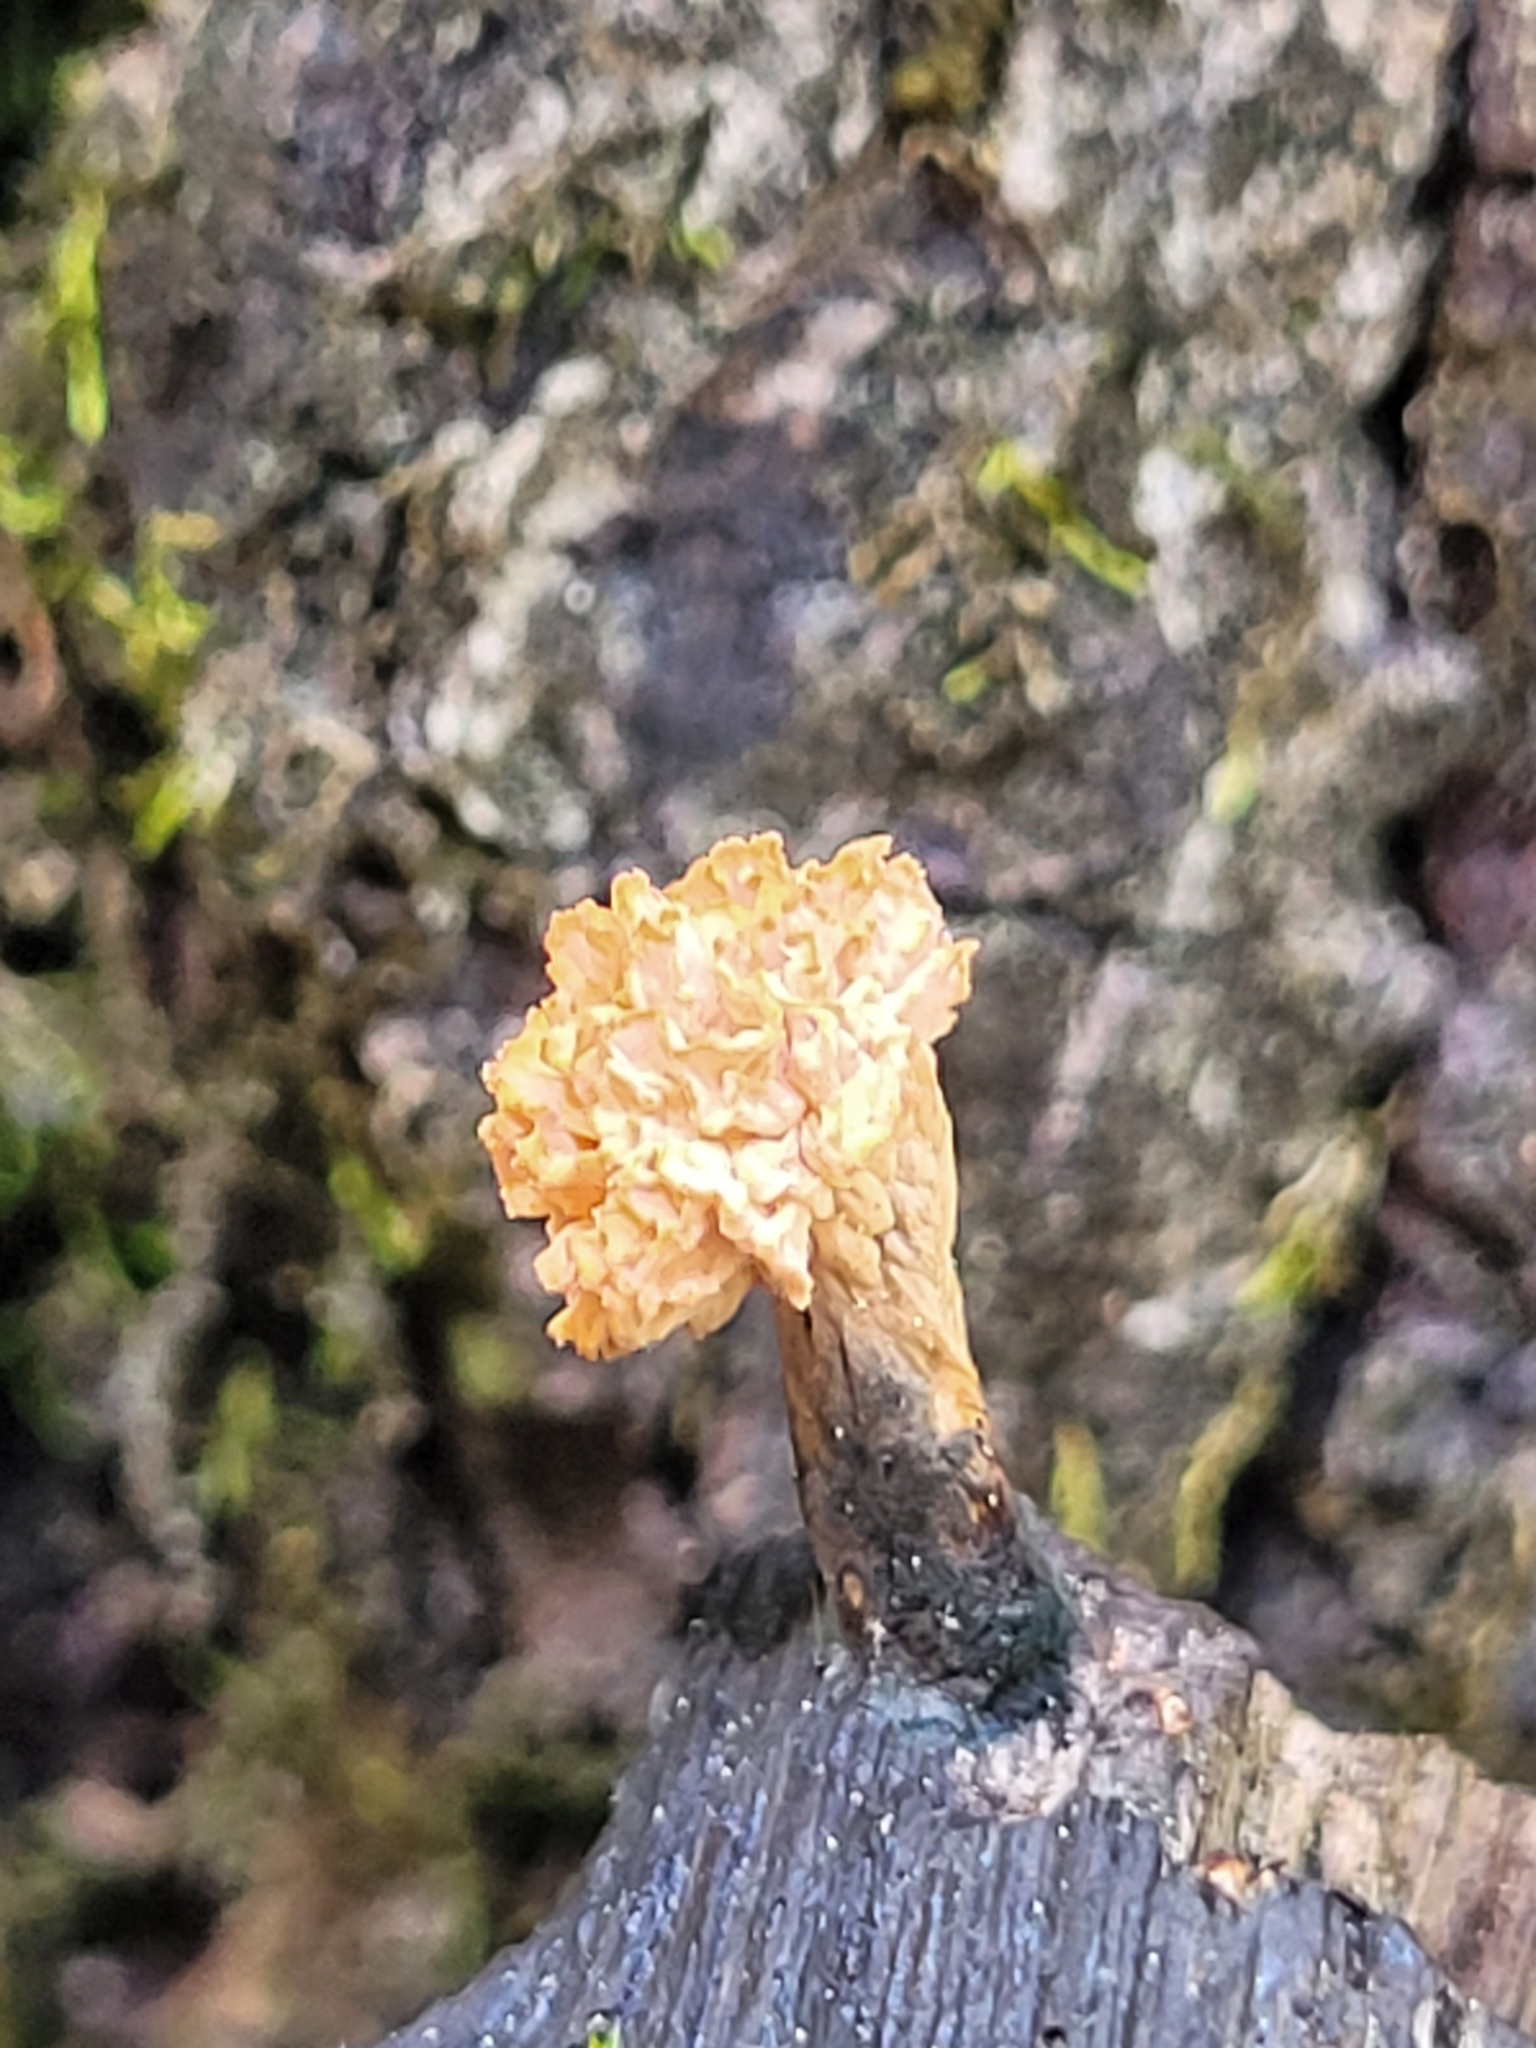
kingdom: Fungi
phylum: Ascomycota
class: Sordariomycetes
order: Xylariales
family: Xylariaceae
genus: Xylaria
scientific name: Xylaria cubensis
